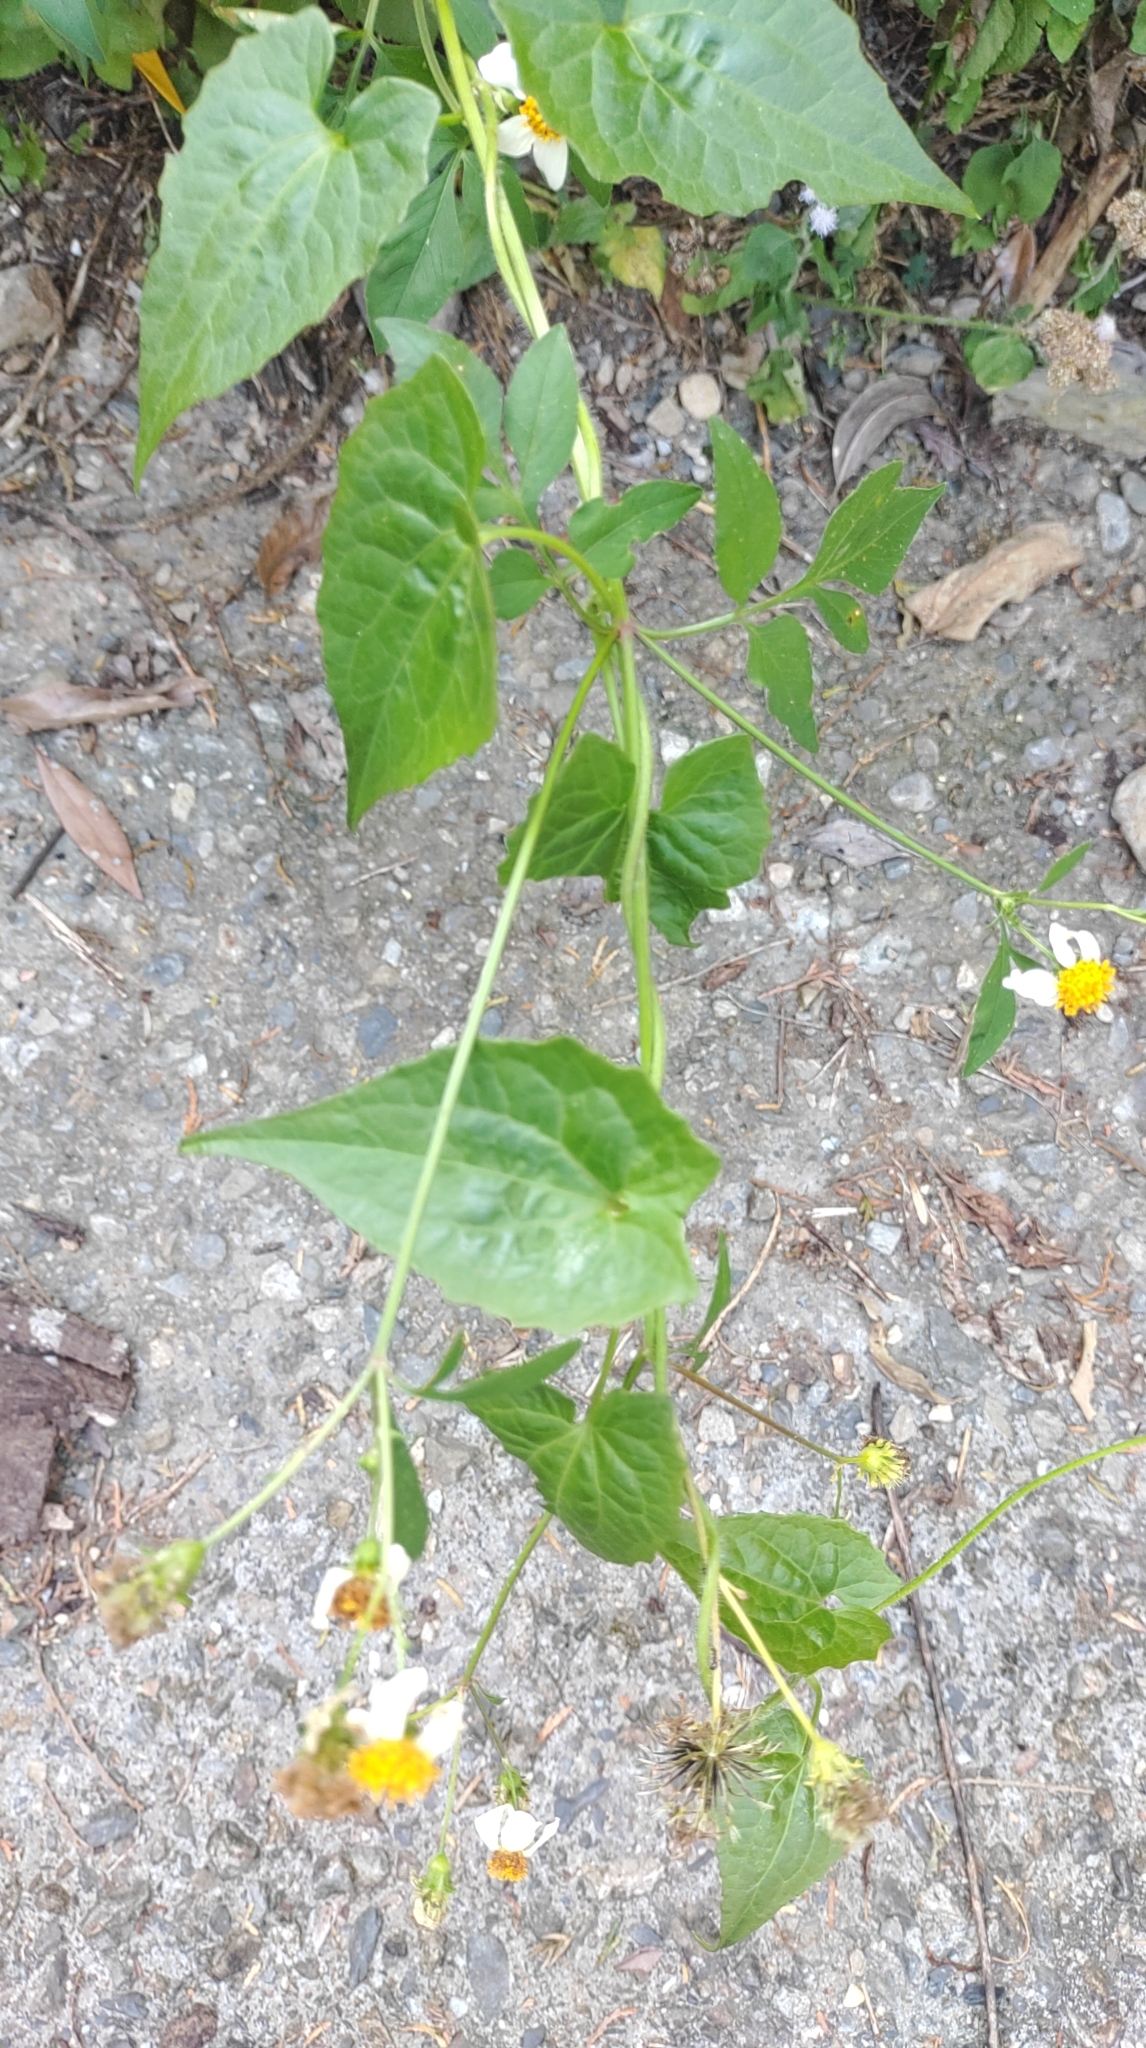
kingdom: Plantae
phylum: Tracheophyta
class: Magnoliopsida
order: Asterales
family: Asteraceae
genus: Mikania
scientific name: Mikania micrantha
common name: Mile-a-minute
